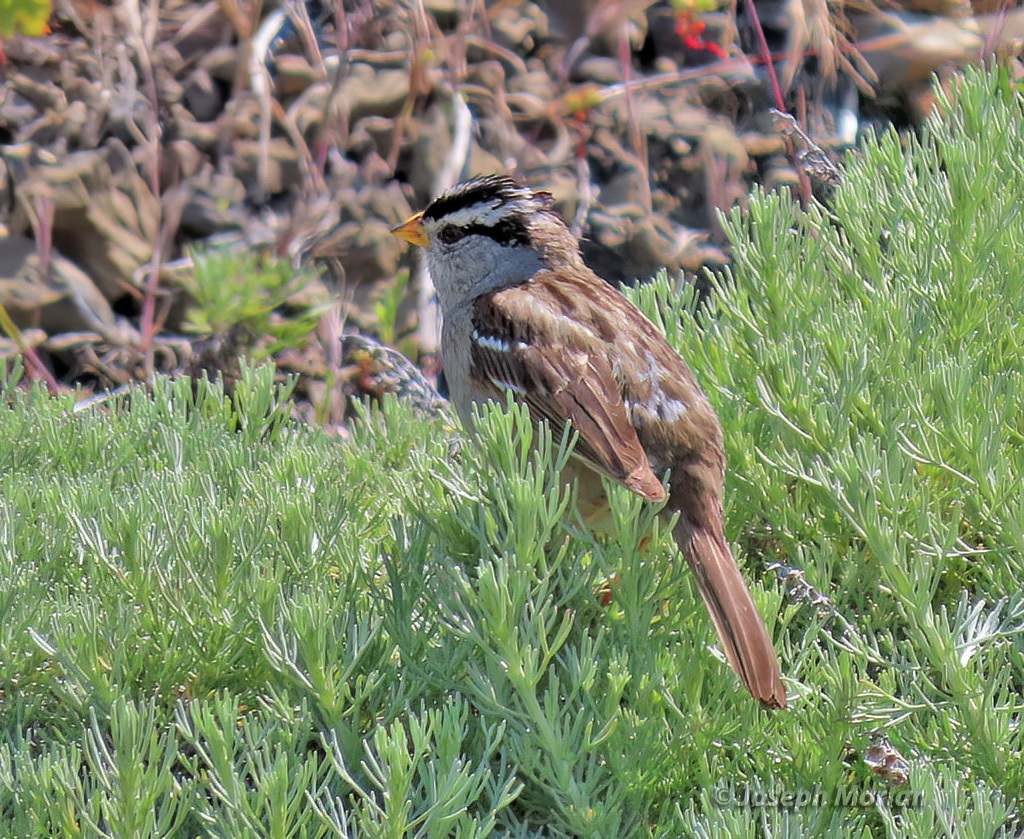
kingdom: Animalia
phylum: Chordata
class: Aves
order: Passeriformes
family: Passerellidae
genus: Zonotrichia
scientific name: Zonotrichia leucophrys
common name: White-crowned sparrow
